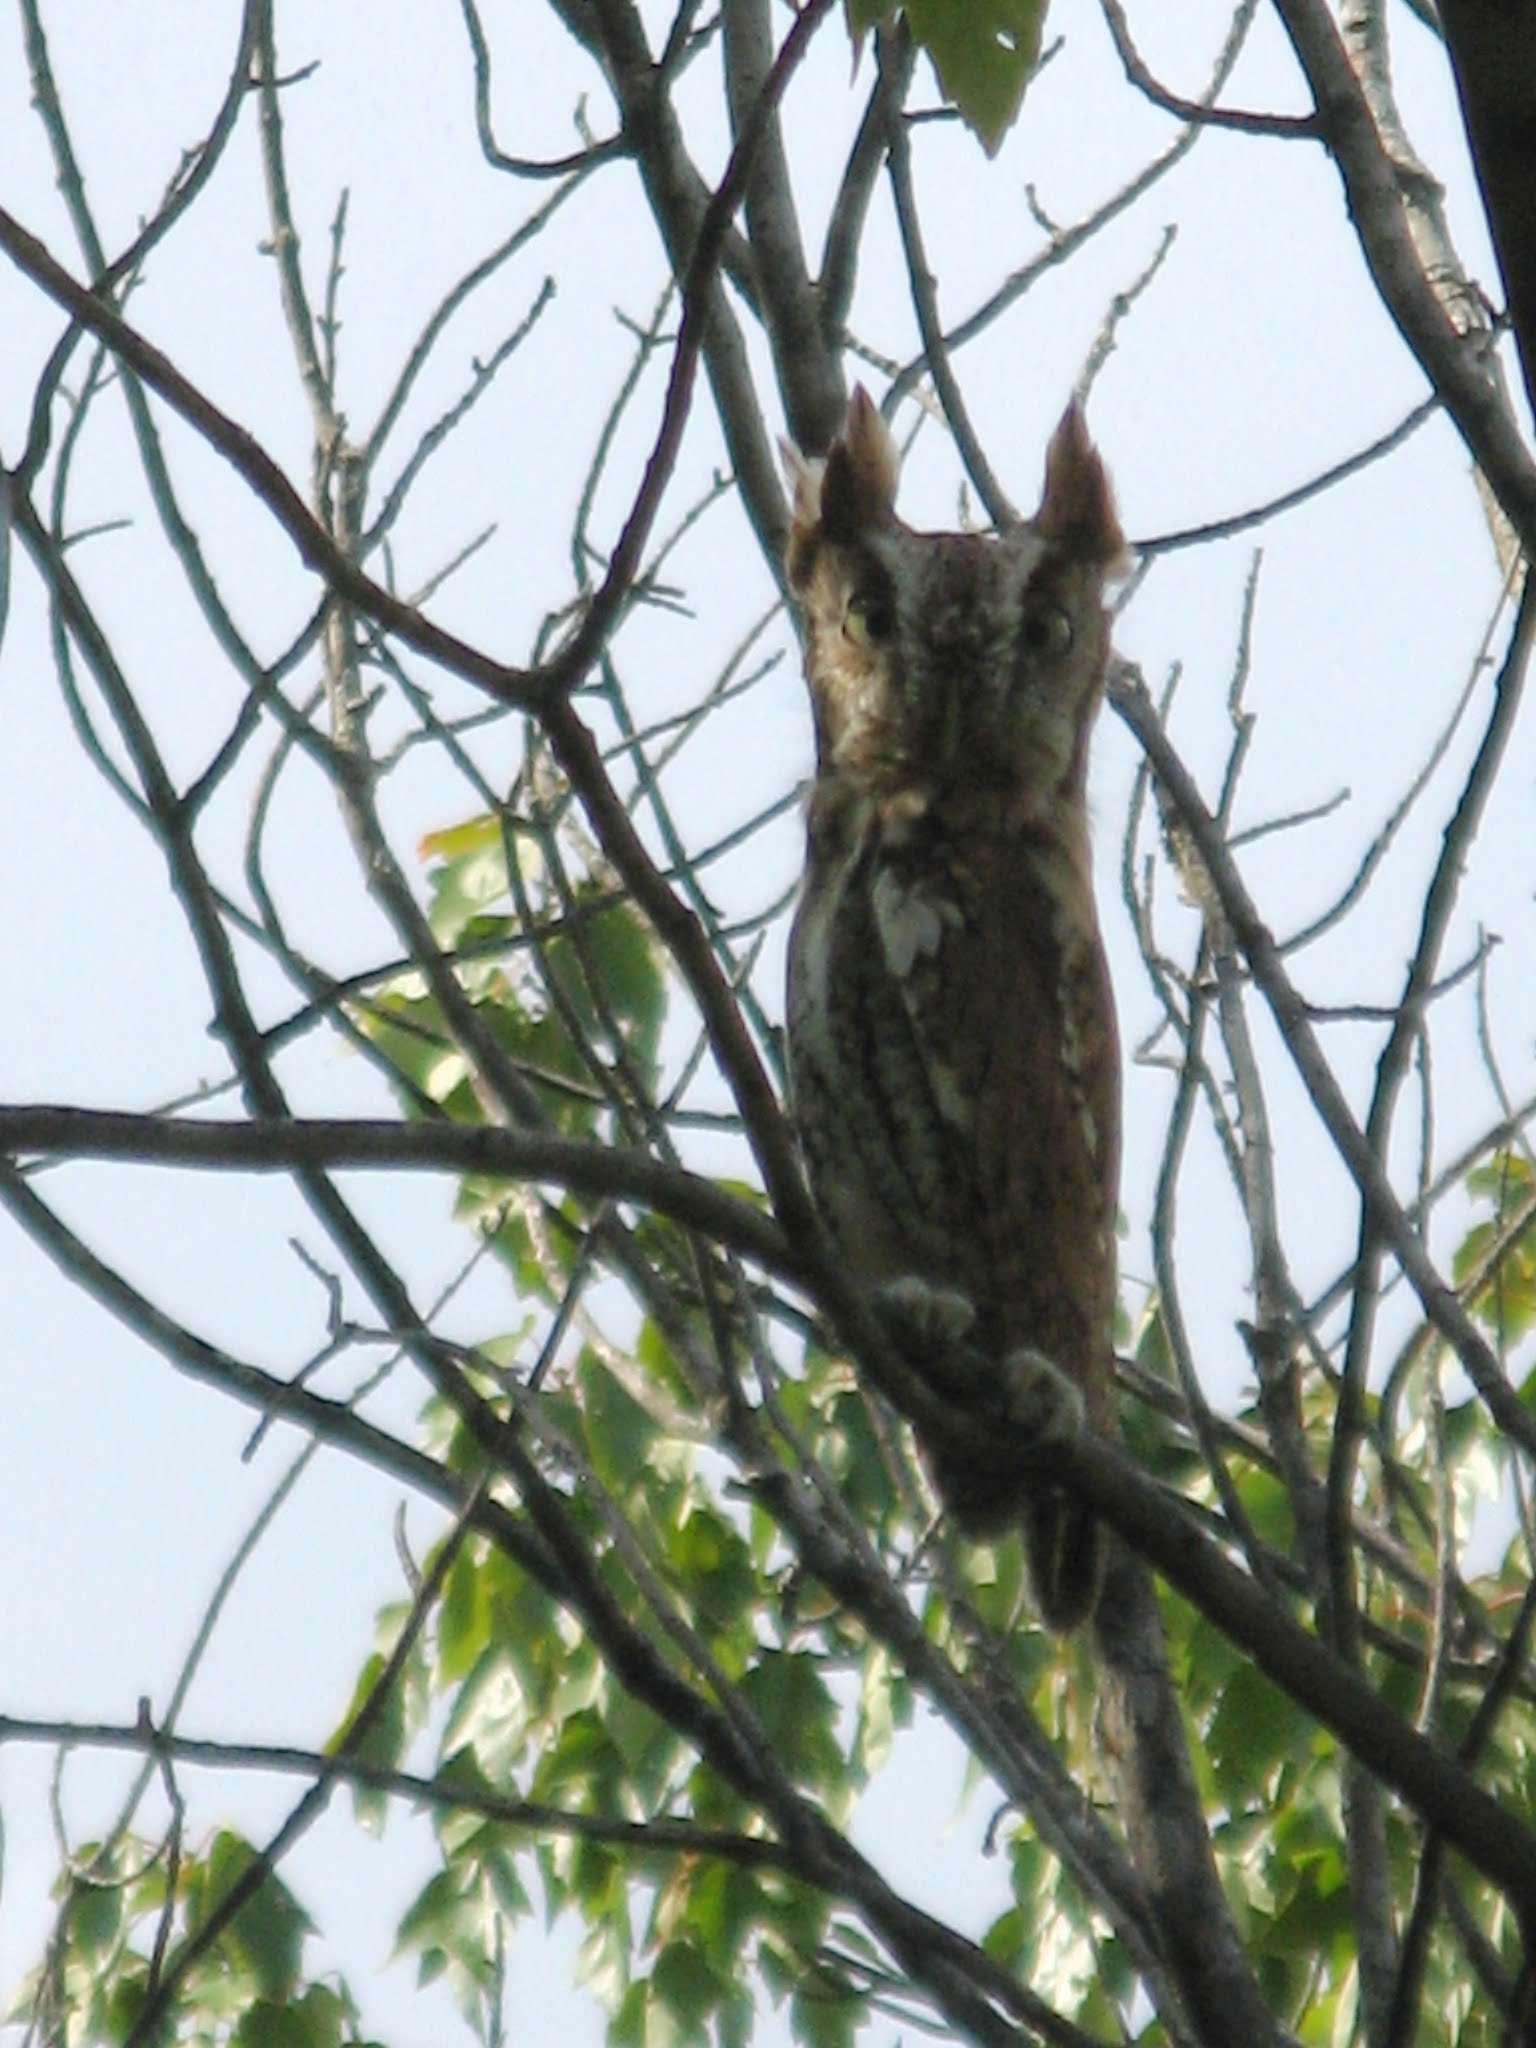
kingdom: Animalia
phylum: Chordata
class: Aves
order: Strigiformes
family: Strigidae
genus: Megascops
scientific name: Megascops asio
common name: Eastern screech-owl
